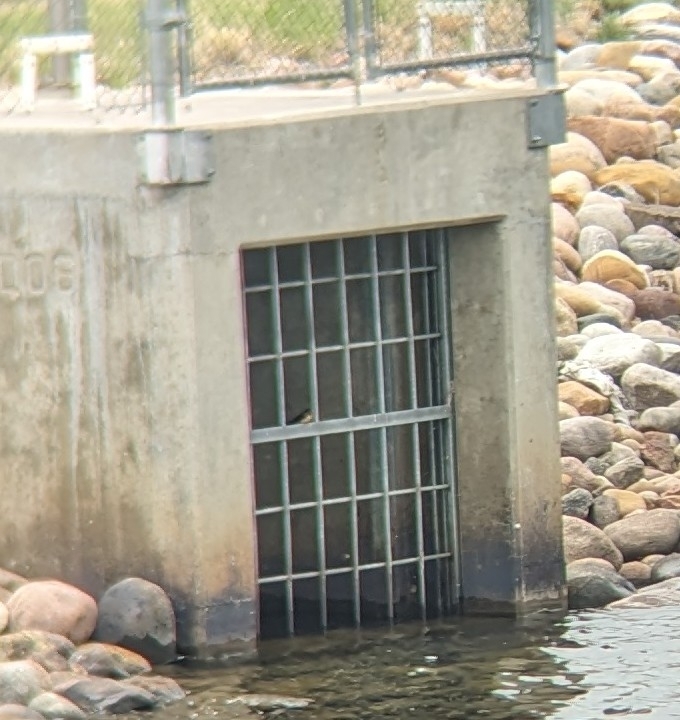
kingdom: Animalia
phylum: Chordata
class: Aves
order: Passeriformes
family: Hirundinidae
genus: Hirundo
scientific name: Hirundo rustica
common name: Barn swallow
